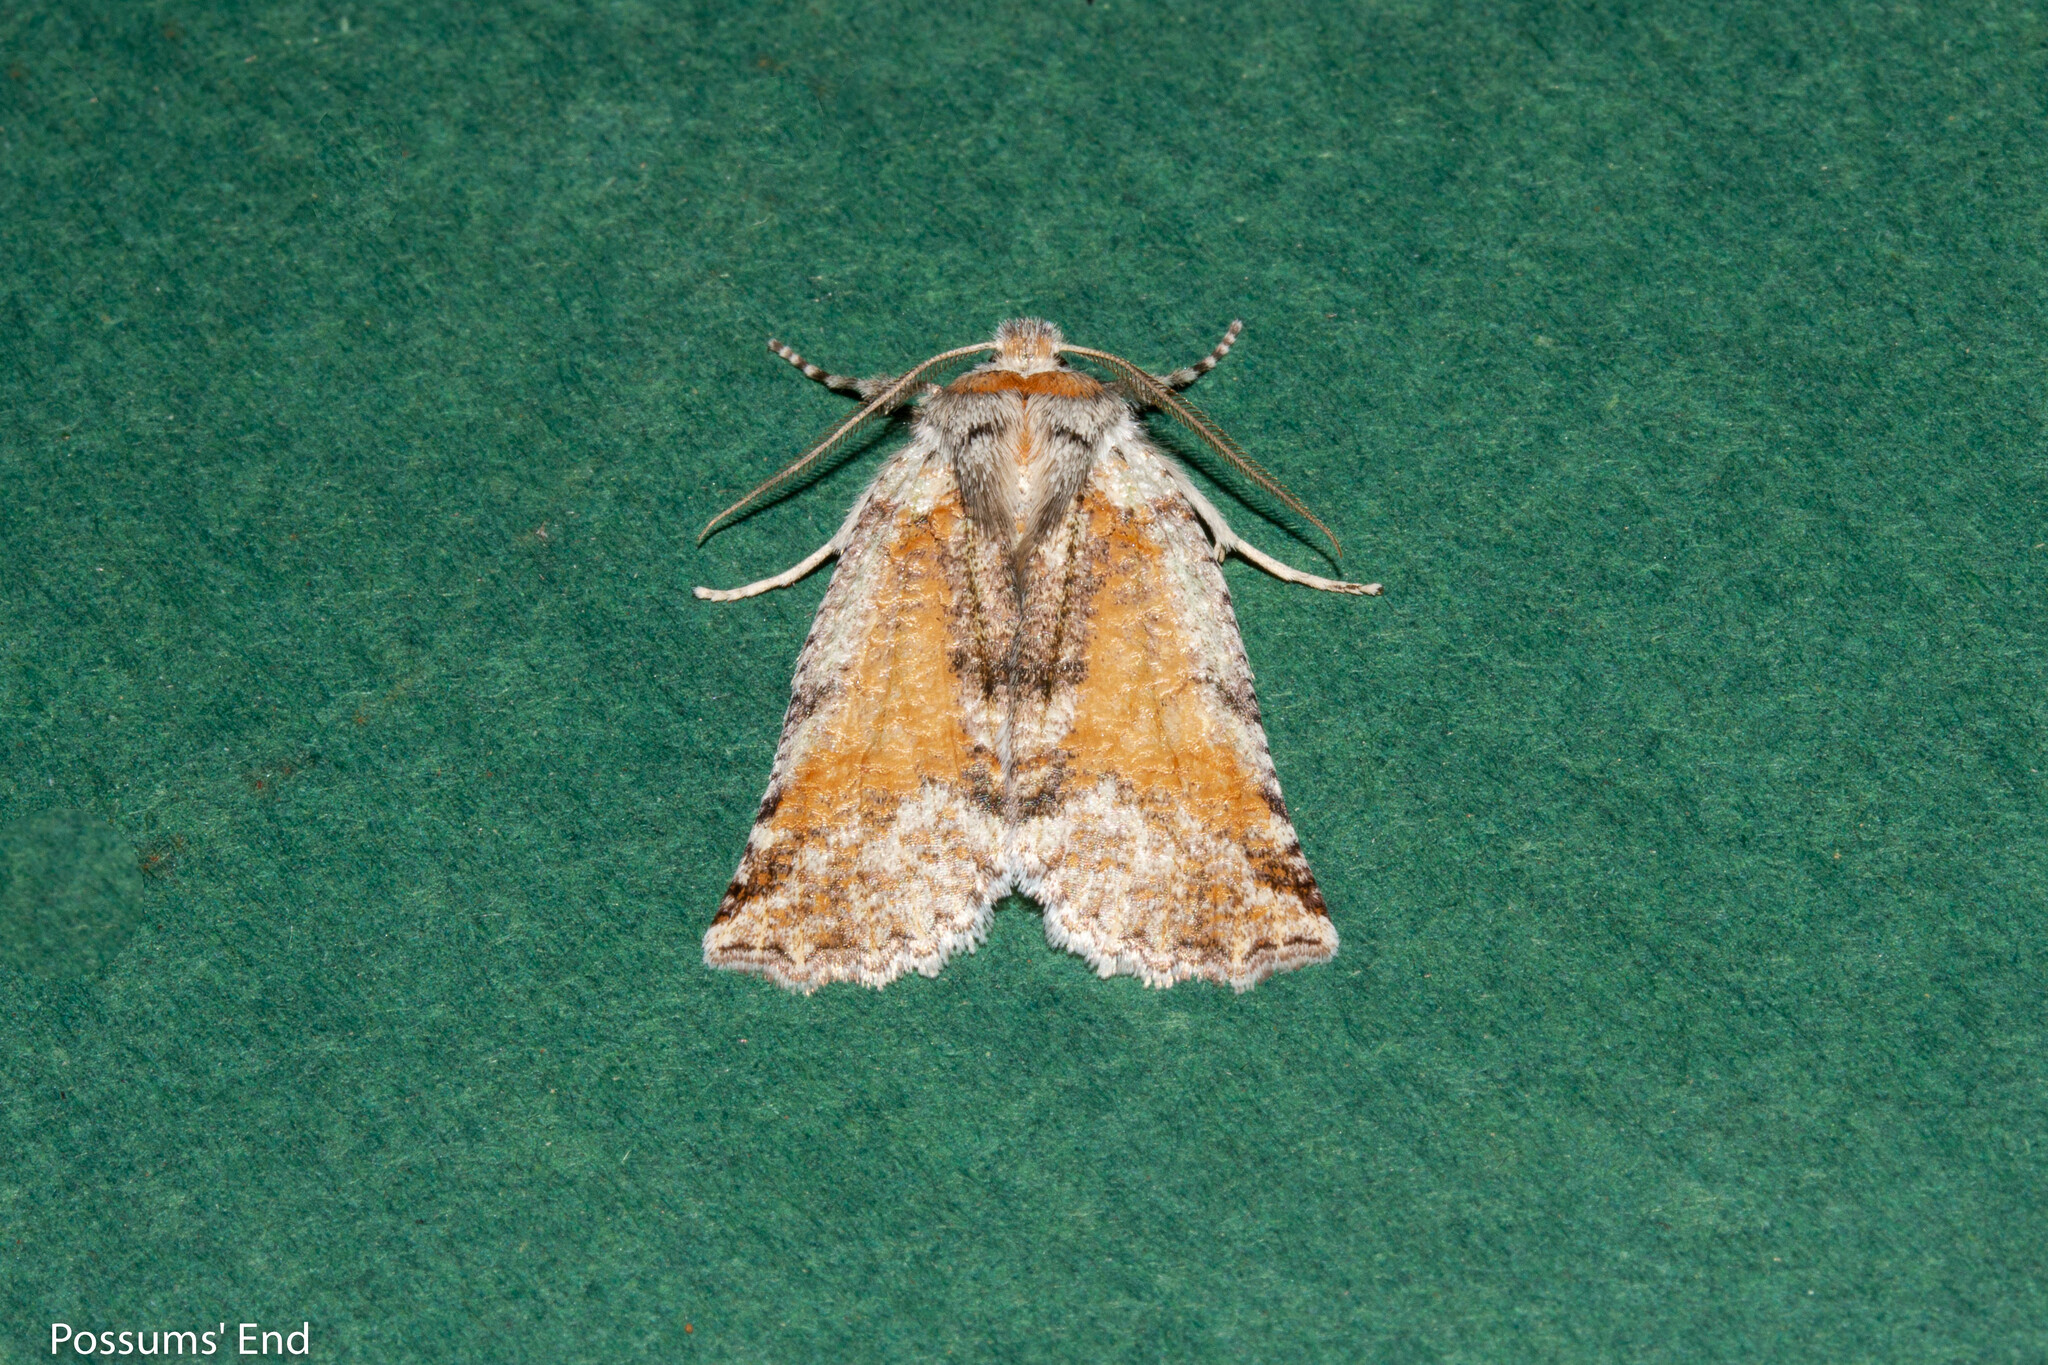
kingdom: Animalia
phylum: Arthropoda
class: Insecta
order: Lepidoptera
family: Geometridae
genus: Declana
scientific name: Declana floccosa
